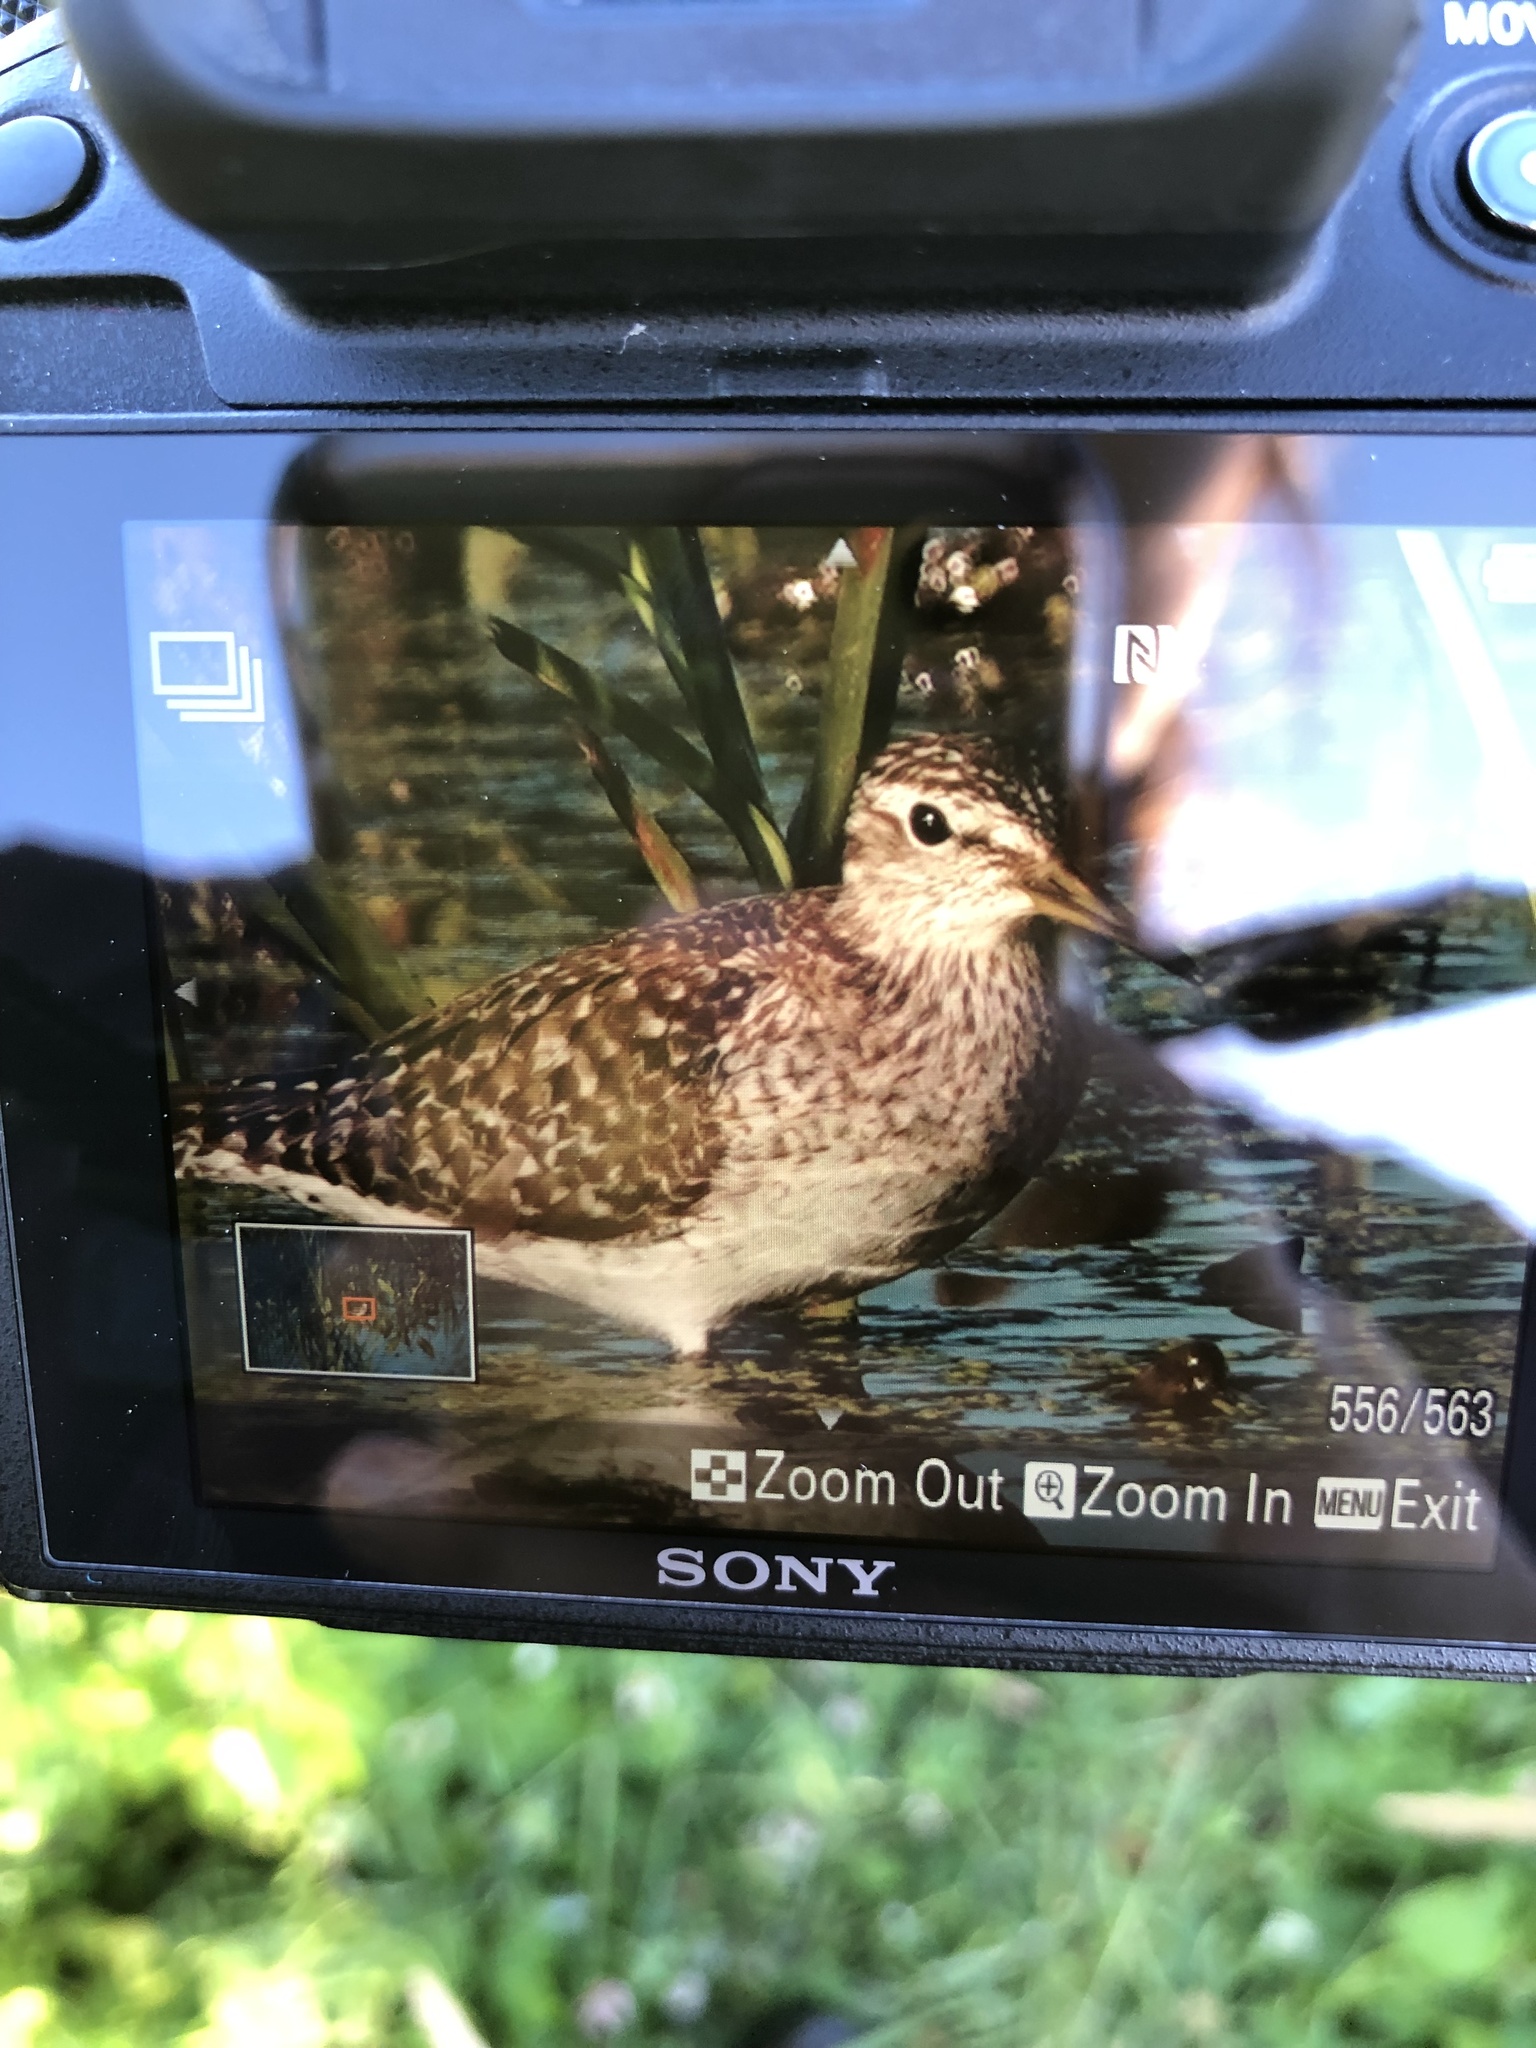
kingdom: Animalia
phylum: Chordata
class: Aves
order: Charadriiformes
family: Scolopacidae
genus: Tringa
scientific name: Tringa glareola
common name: Wood sandpiper
